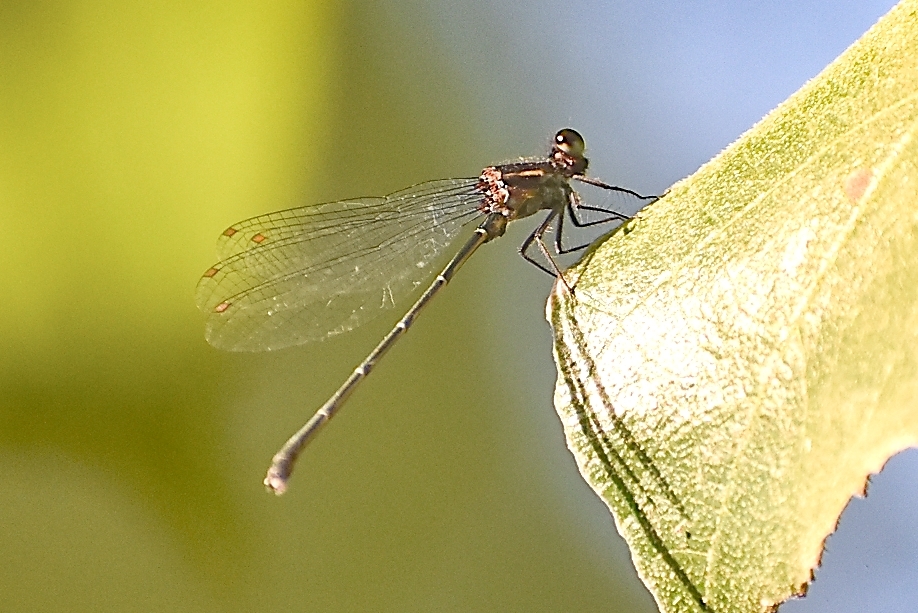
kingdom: Animalia
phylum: Arthropoda
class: Insecta
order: Odonata
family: Platycnemididae
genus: Onychargia
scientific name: Onychargia atrocyana
